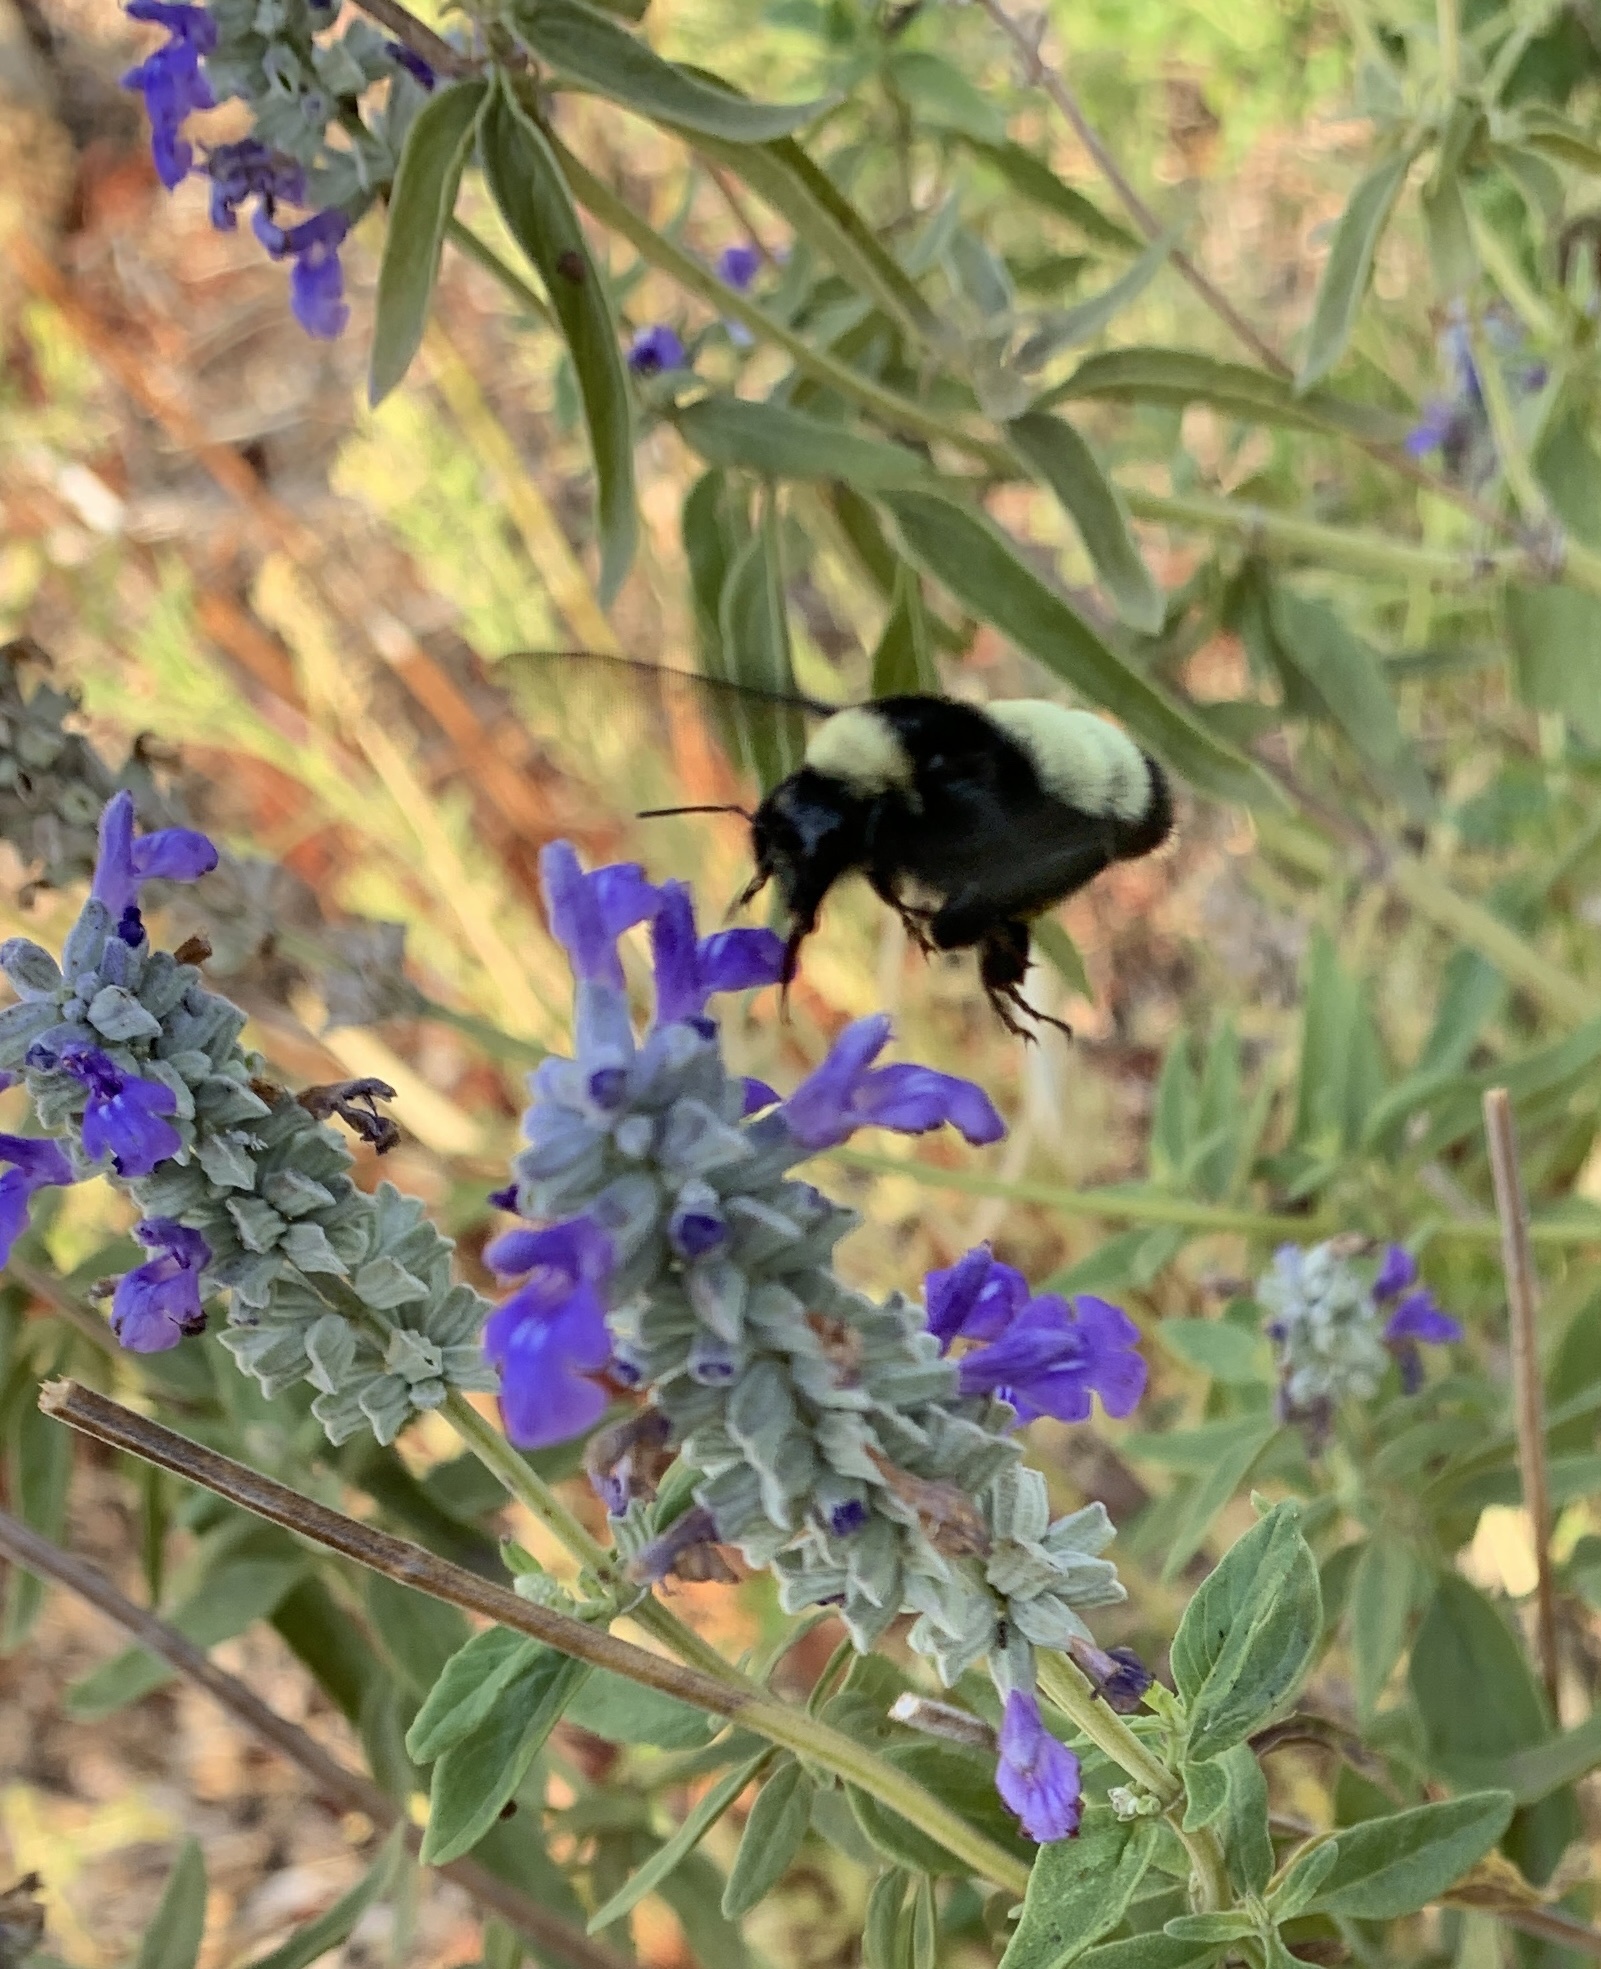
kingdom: Animalia
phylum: Arthropoda
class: Insecta
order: Hymenoptera
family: Apidae
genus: Bombus
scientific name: Bombus pensylvanicus
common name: Bumble bee
